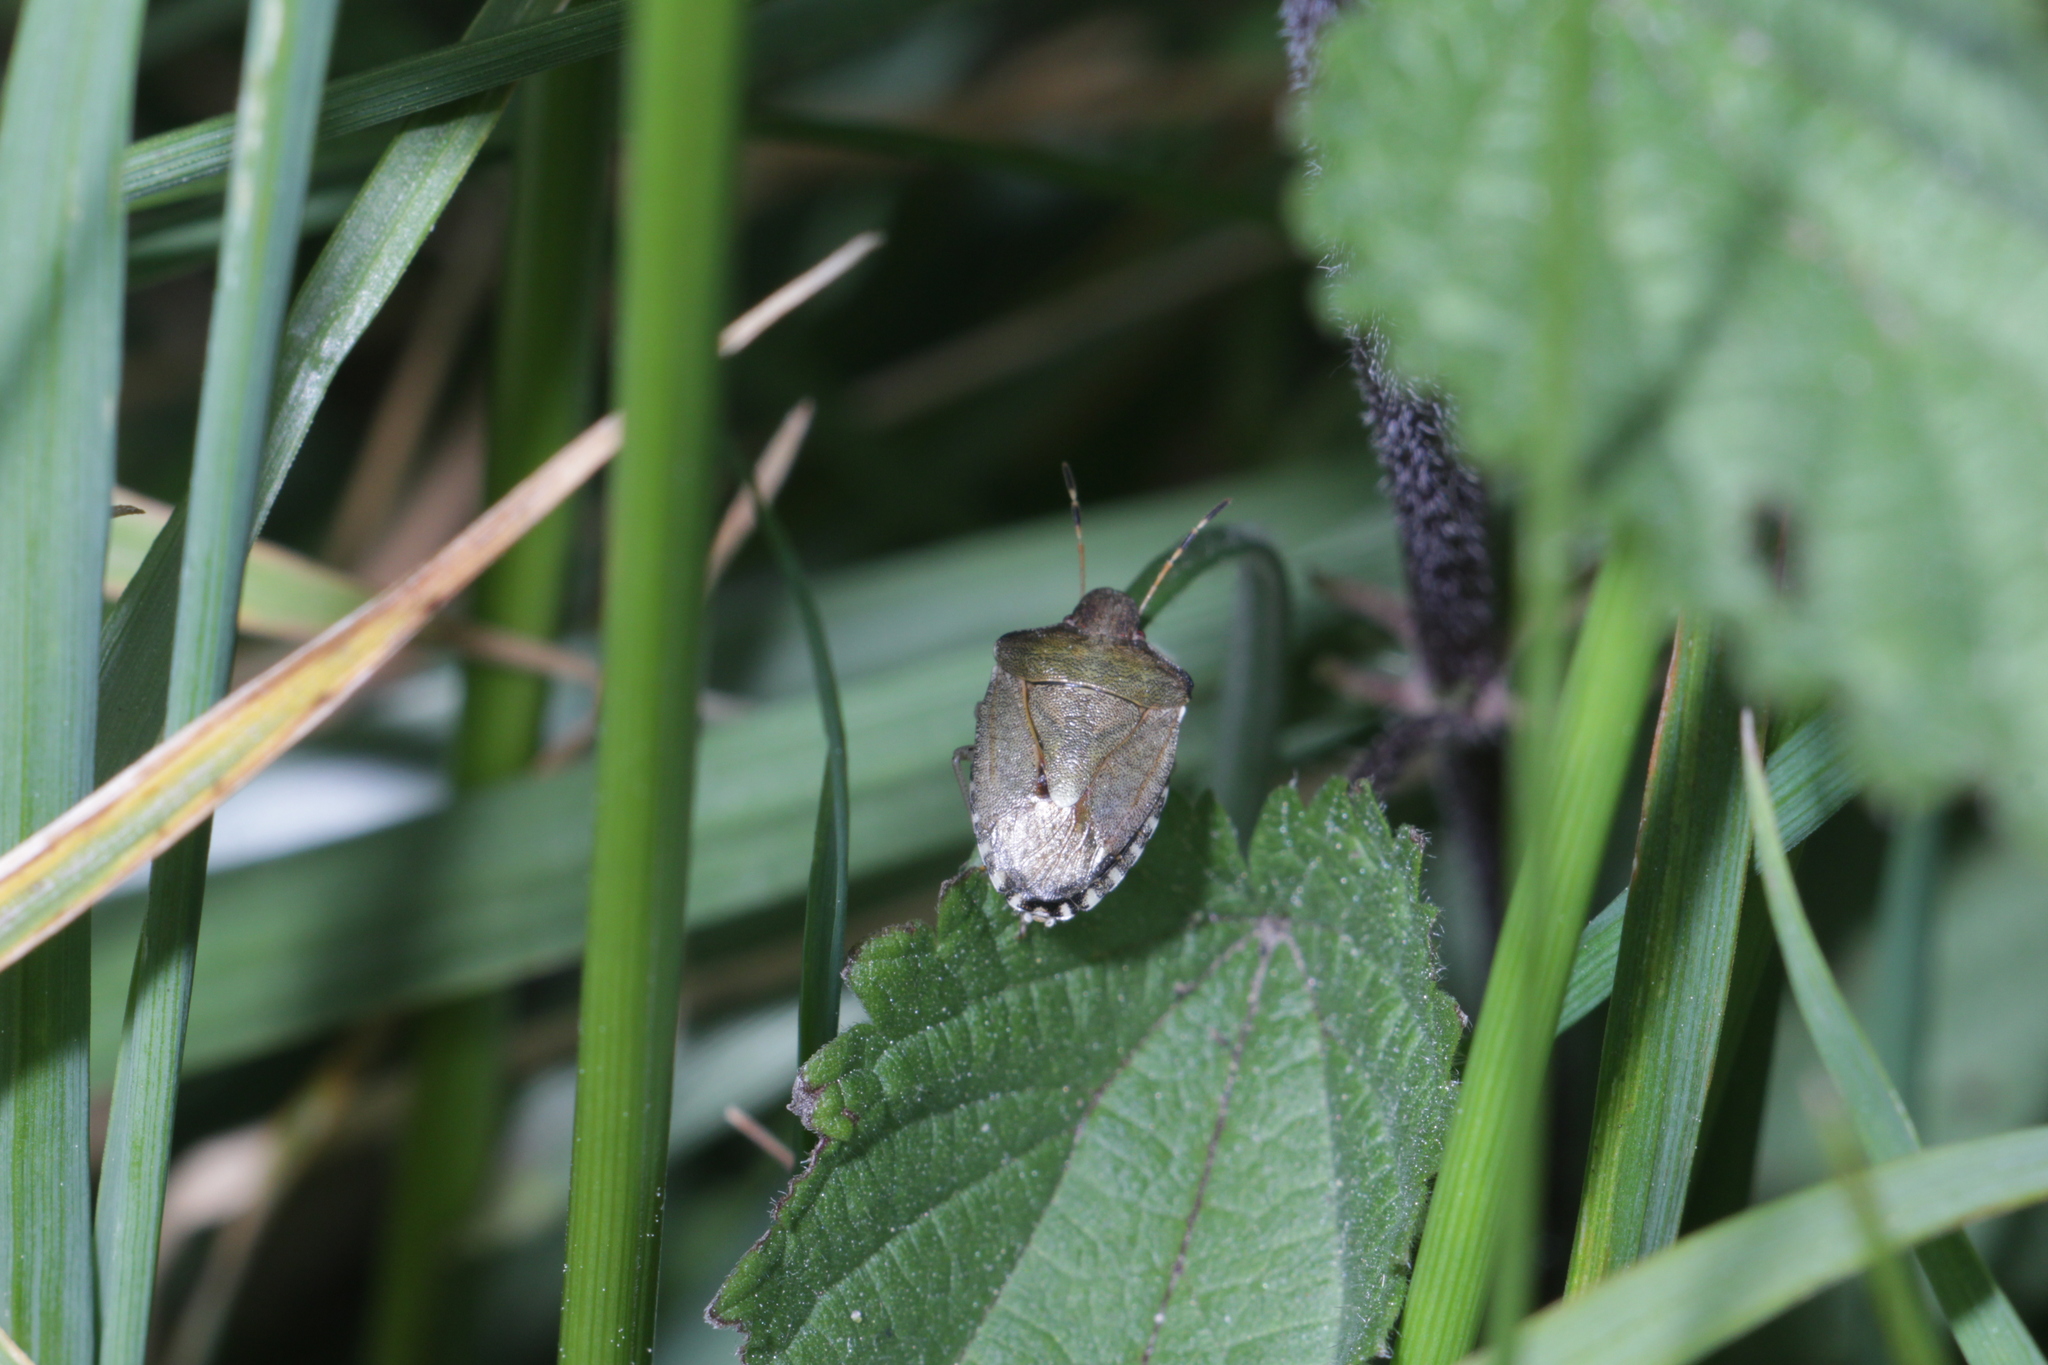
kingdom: Animalia
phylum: Arthropoda
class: Insecta
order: Hemiptera
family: Pentatomidae
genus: Holcostethus
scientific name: Holcostethus strictus
